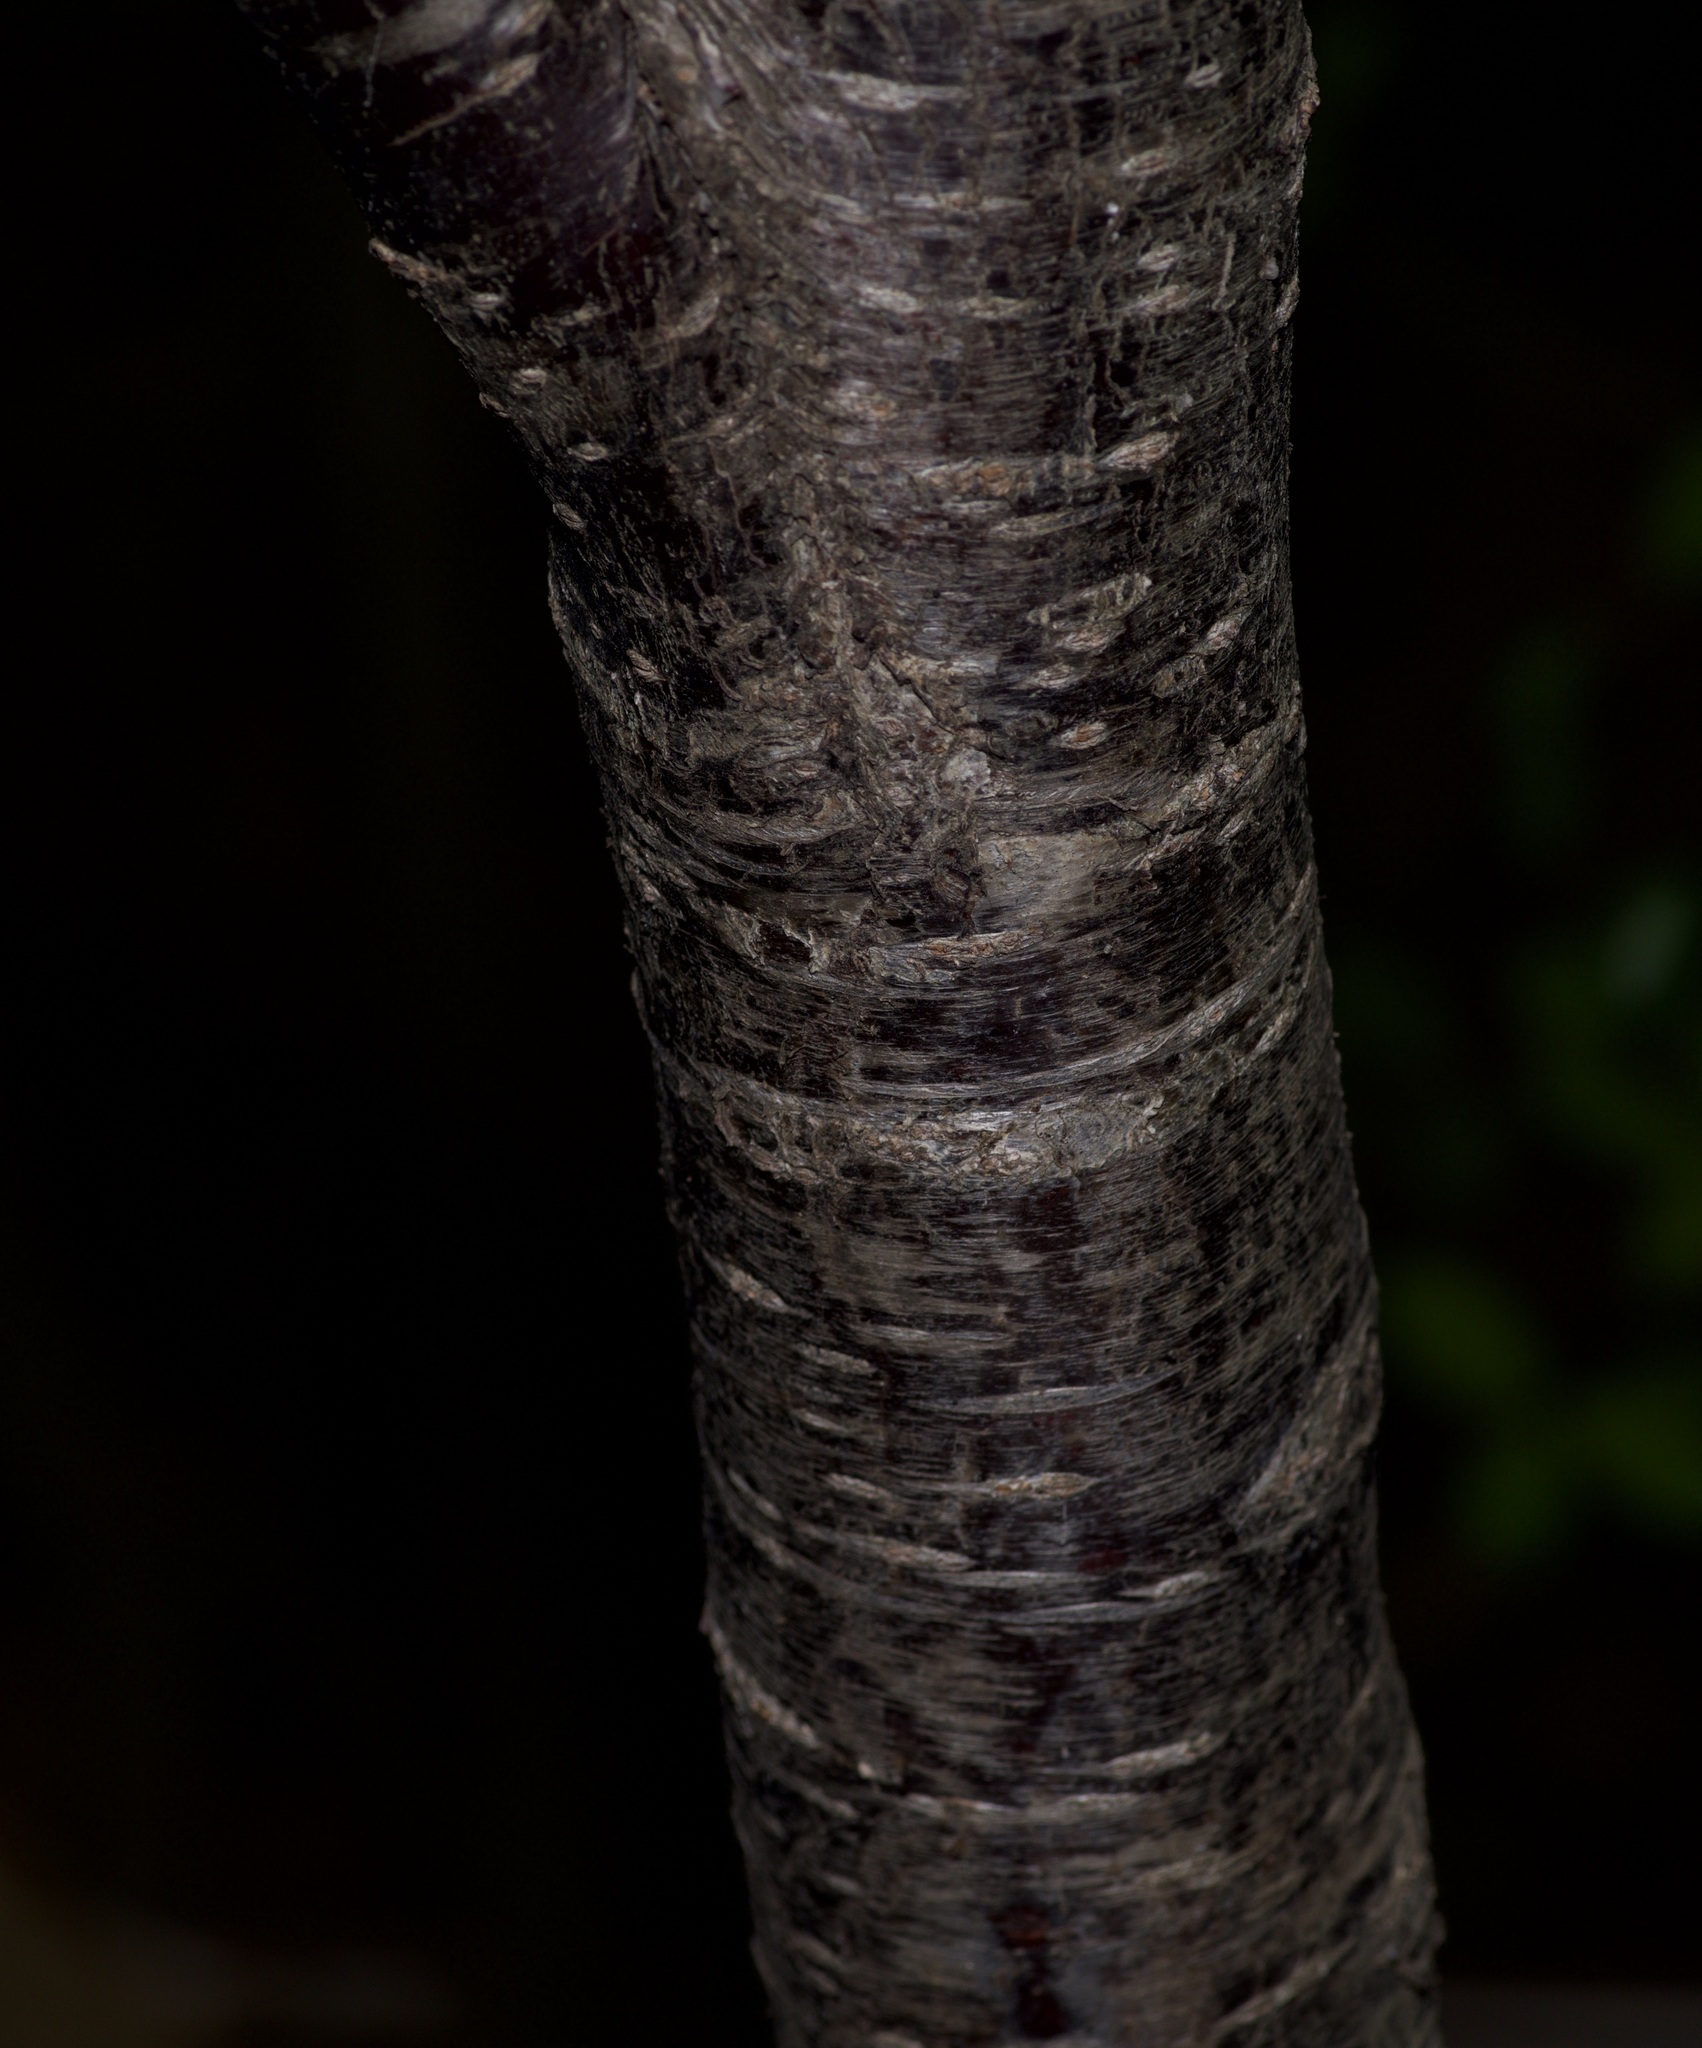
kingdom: Plantae
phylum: Tracheophyta
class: Magnoliopsida
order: Rosales
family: Rosaceae
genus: Prunus
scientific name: Prunus mexicana
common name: Mexican plum
